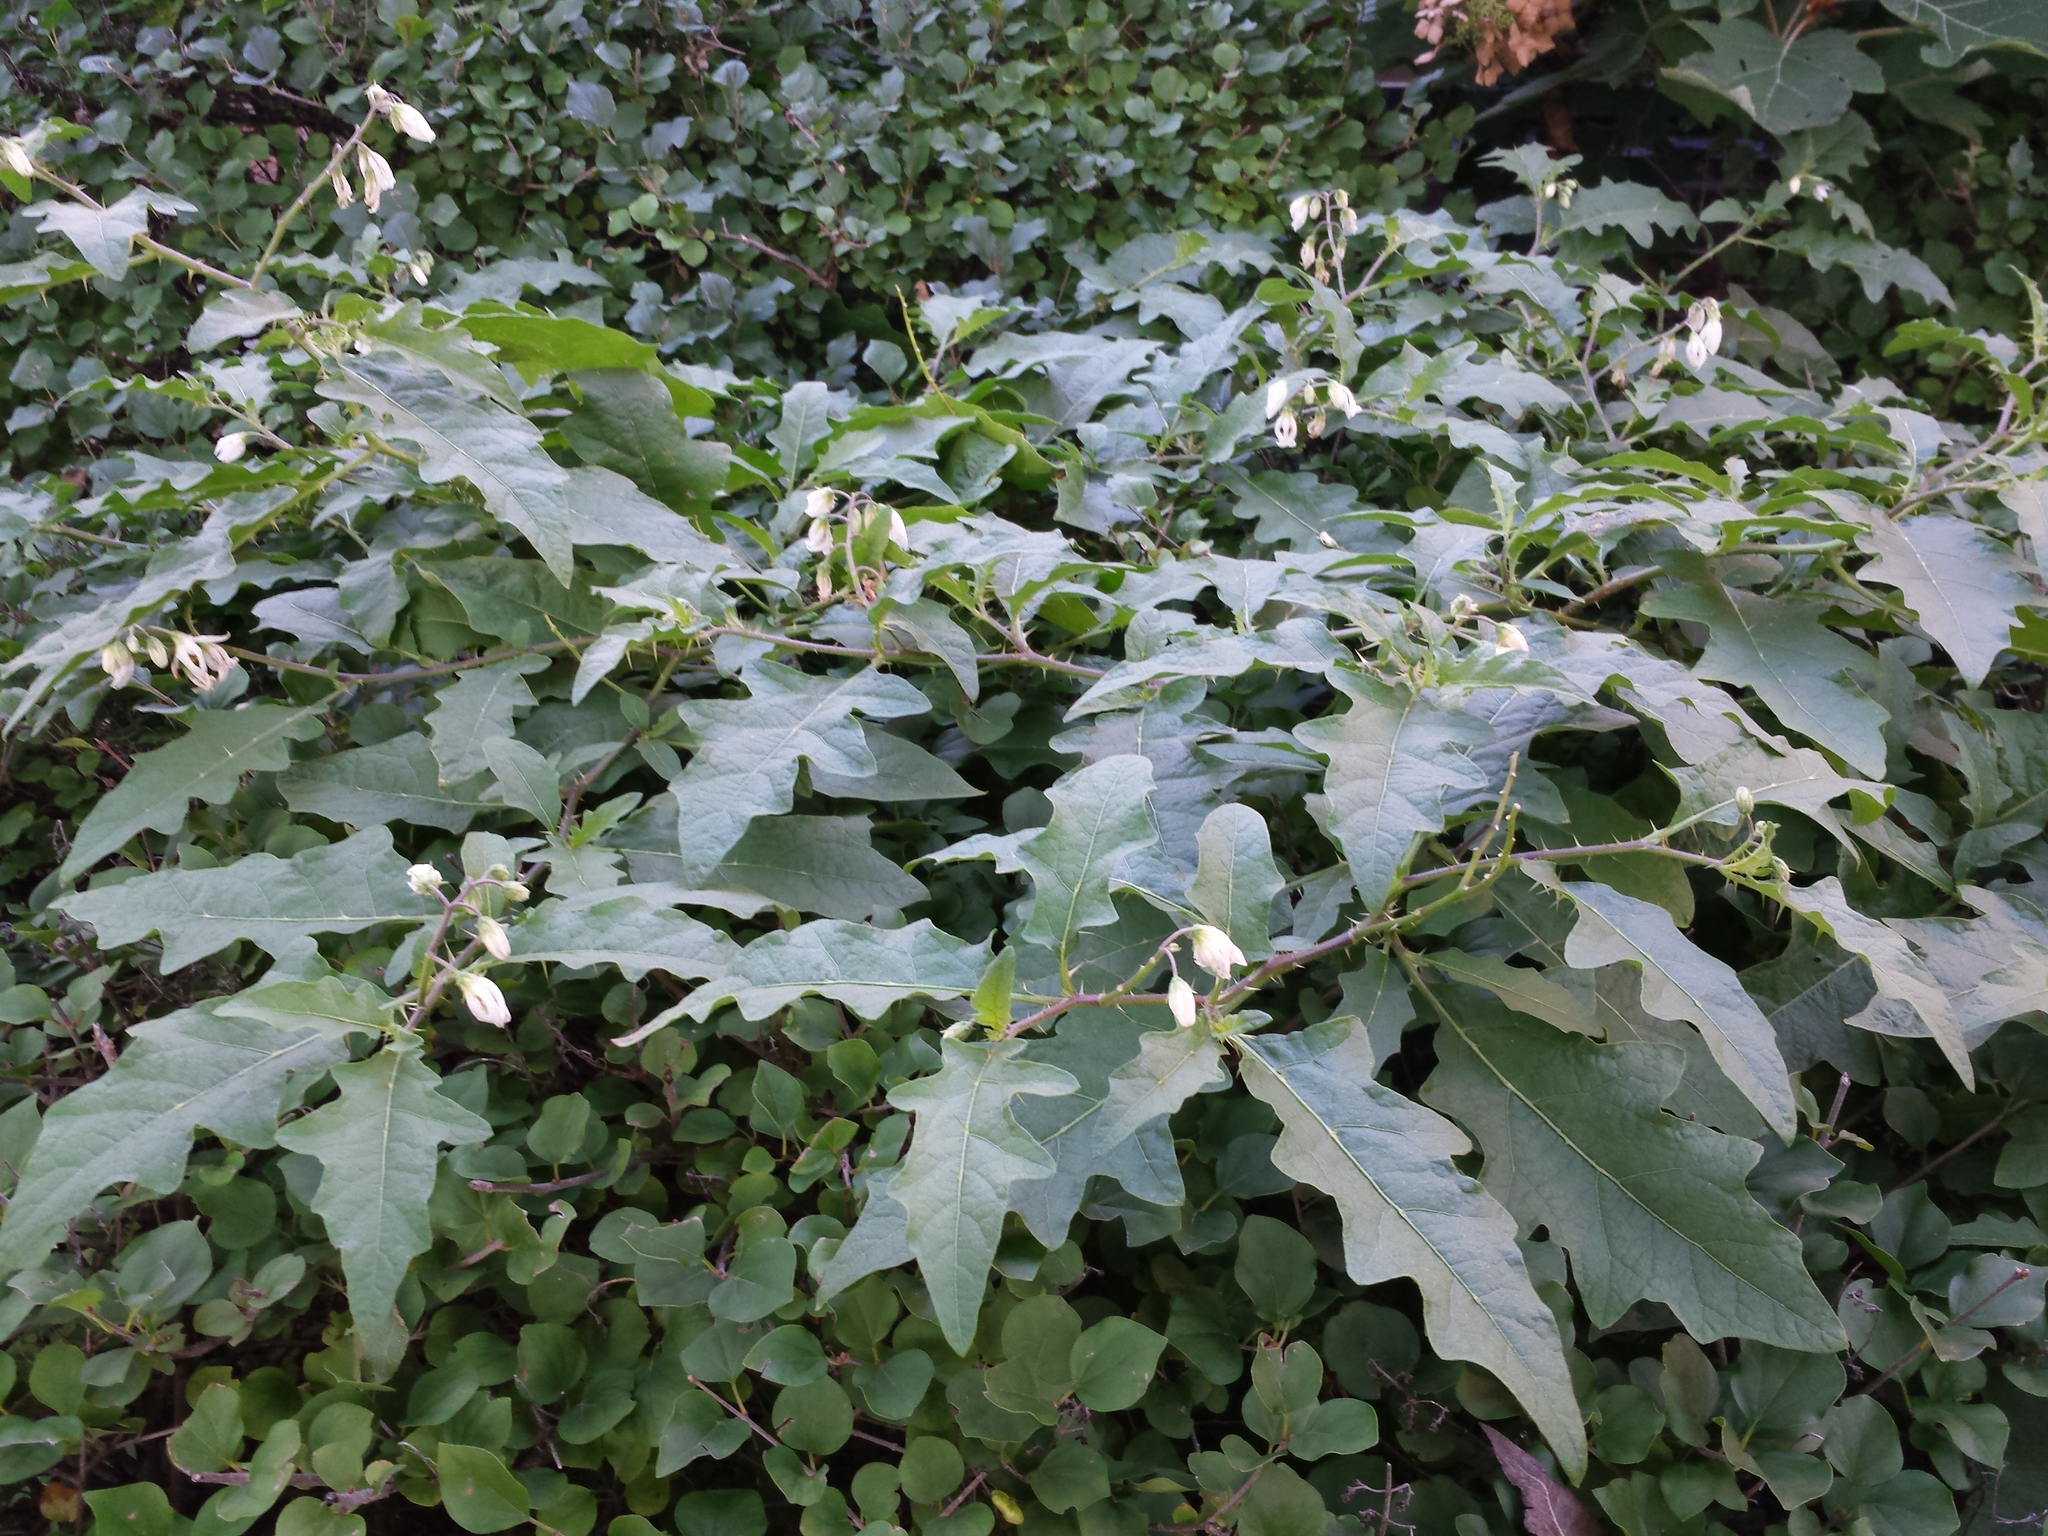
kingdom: Plantae
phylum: Tracheophyta
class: Magnoliopsida
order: Solanales
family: Solanaceae
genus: Solanum
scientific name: Solanum carolinense
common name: Horse-nettle
